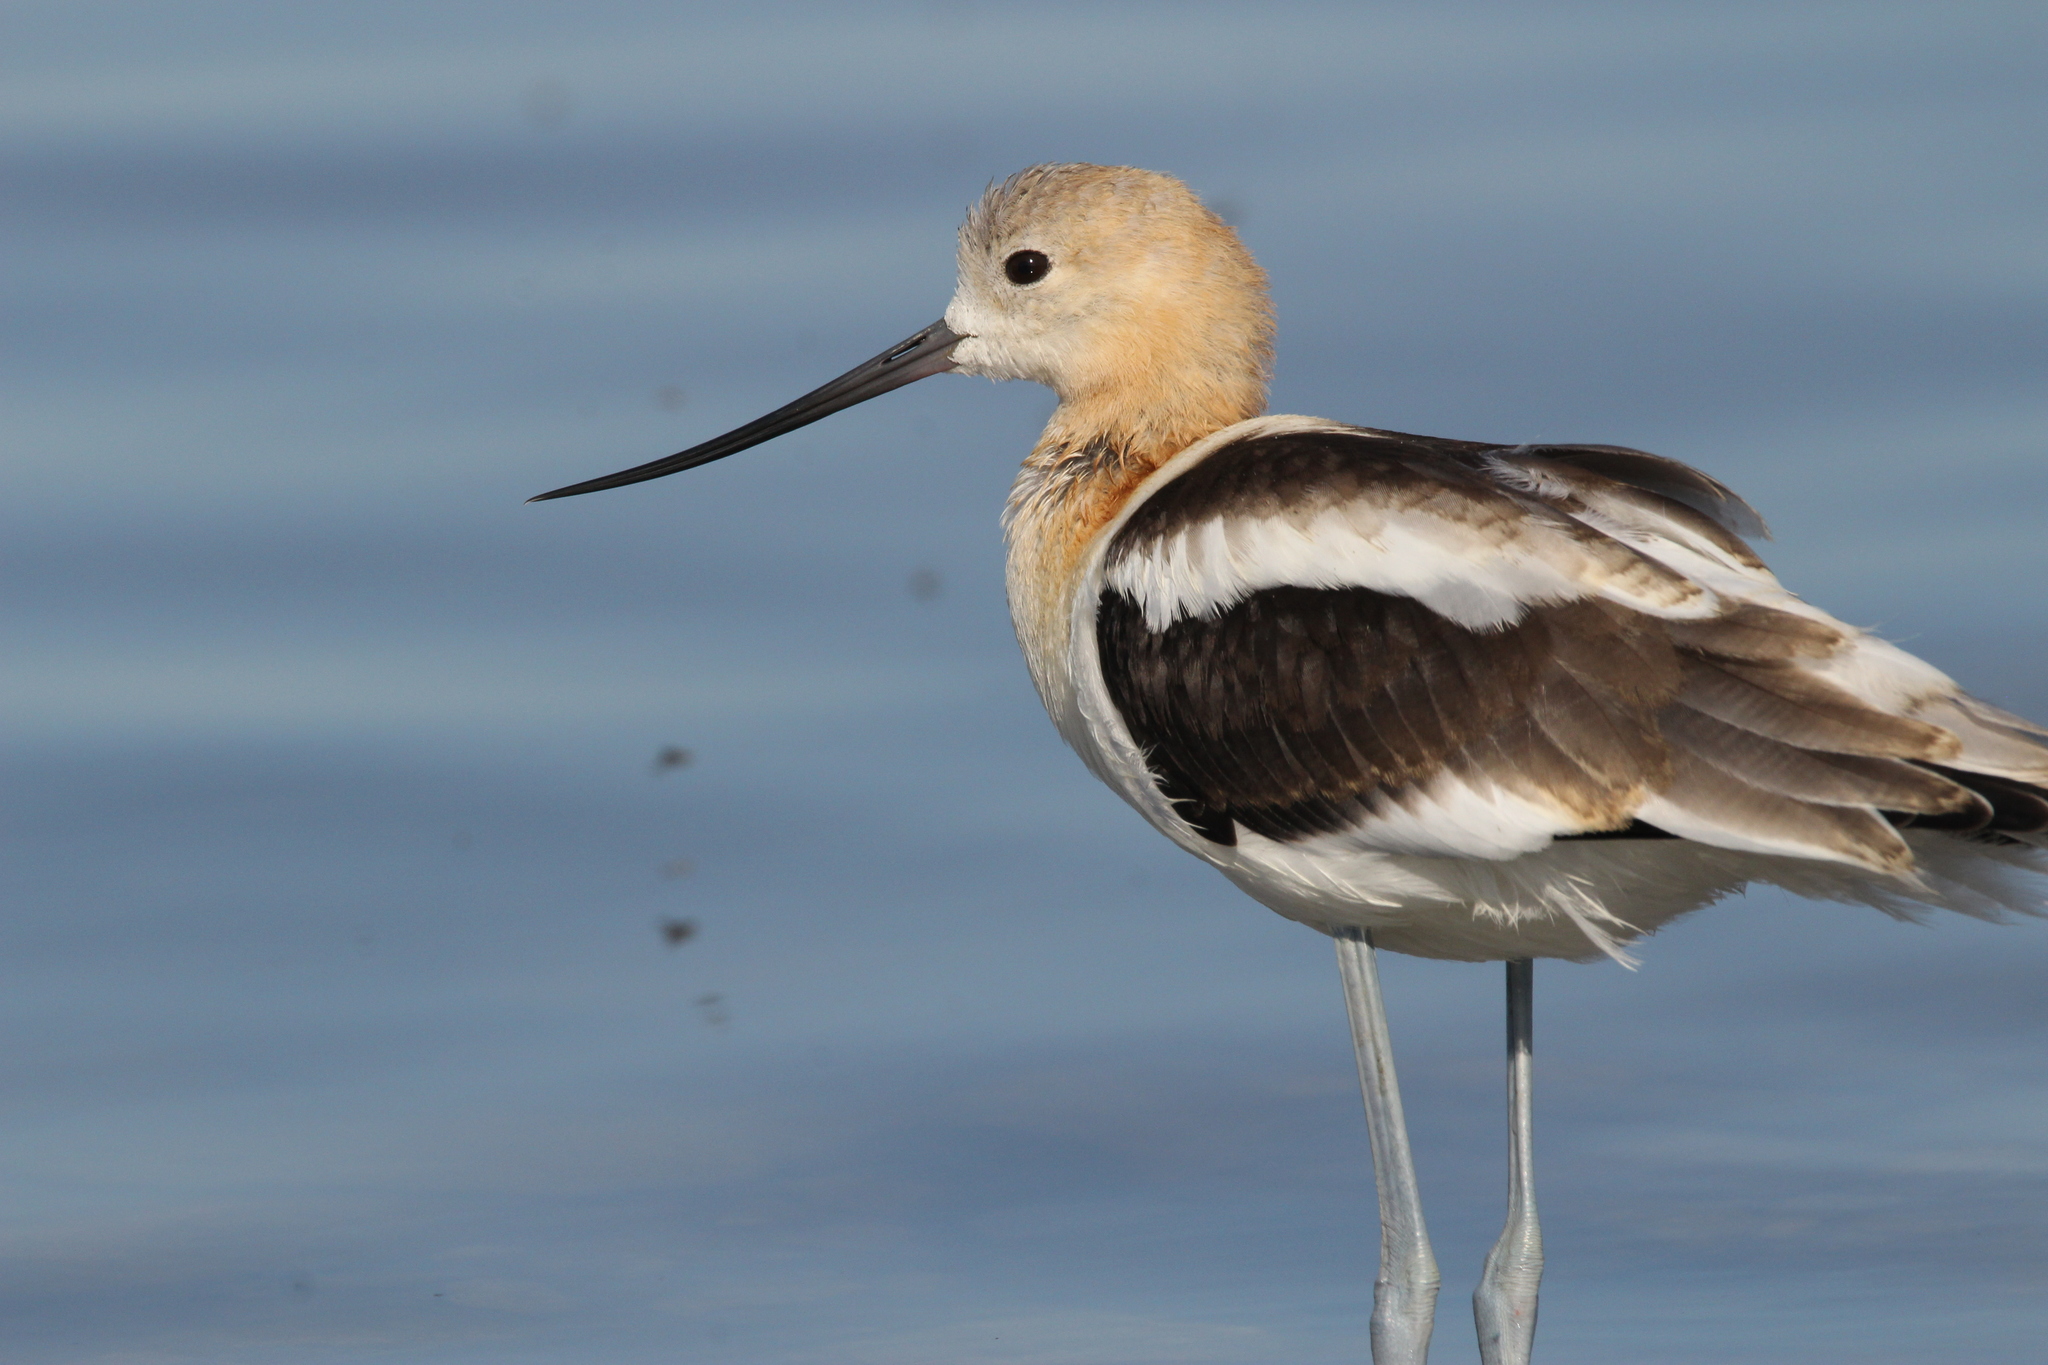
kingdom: Animalia
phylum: Chordata
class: Aves
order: Charadriiformes
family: Recurvirostridae
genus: Recurvirostra
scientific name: Recurvirostra americana
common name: American avocet
